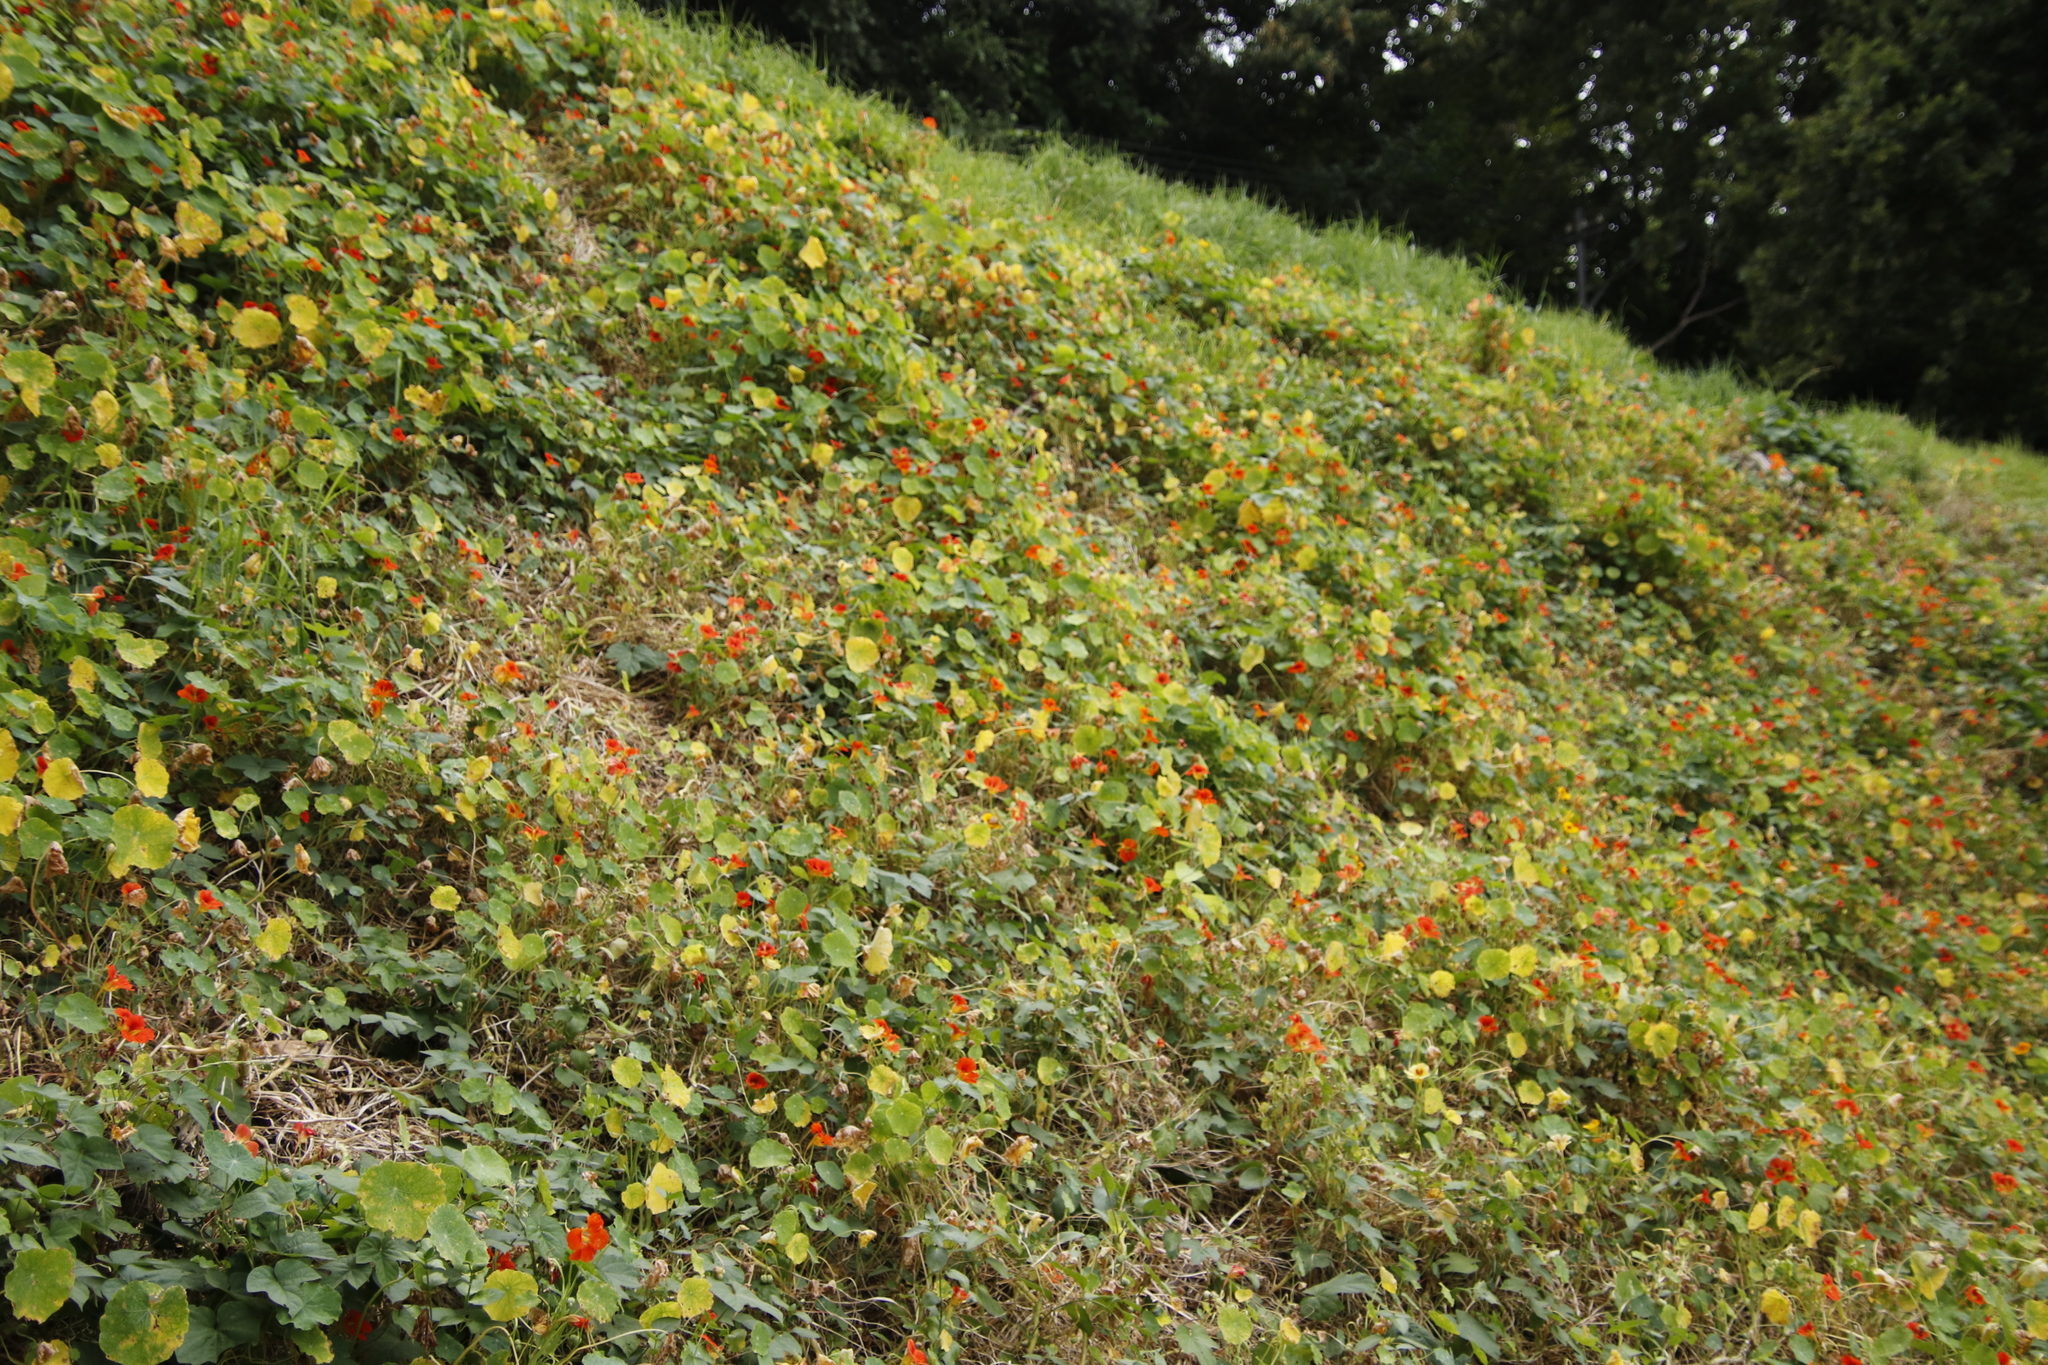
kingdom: Plantae
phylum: Tracheophyta
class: Magnoliopsida
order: Brassicales
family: Tropaeolaceae
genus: Tropaeolum
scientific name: Tropaeolum majus
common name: Nasturtium
